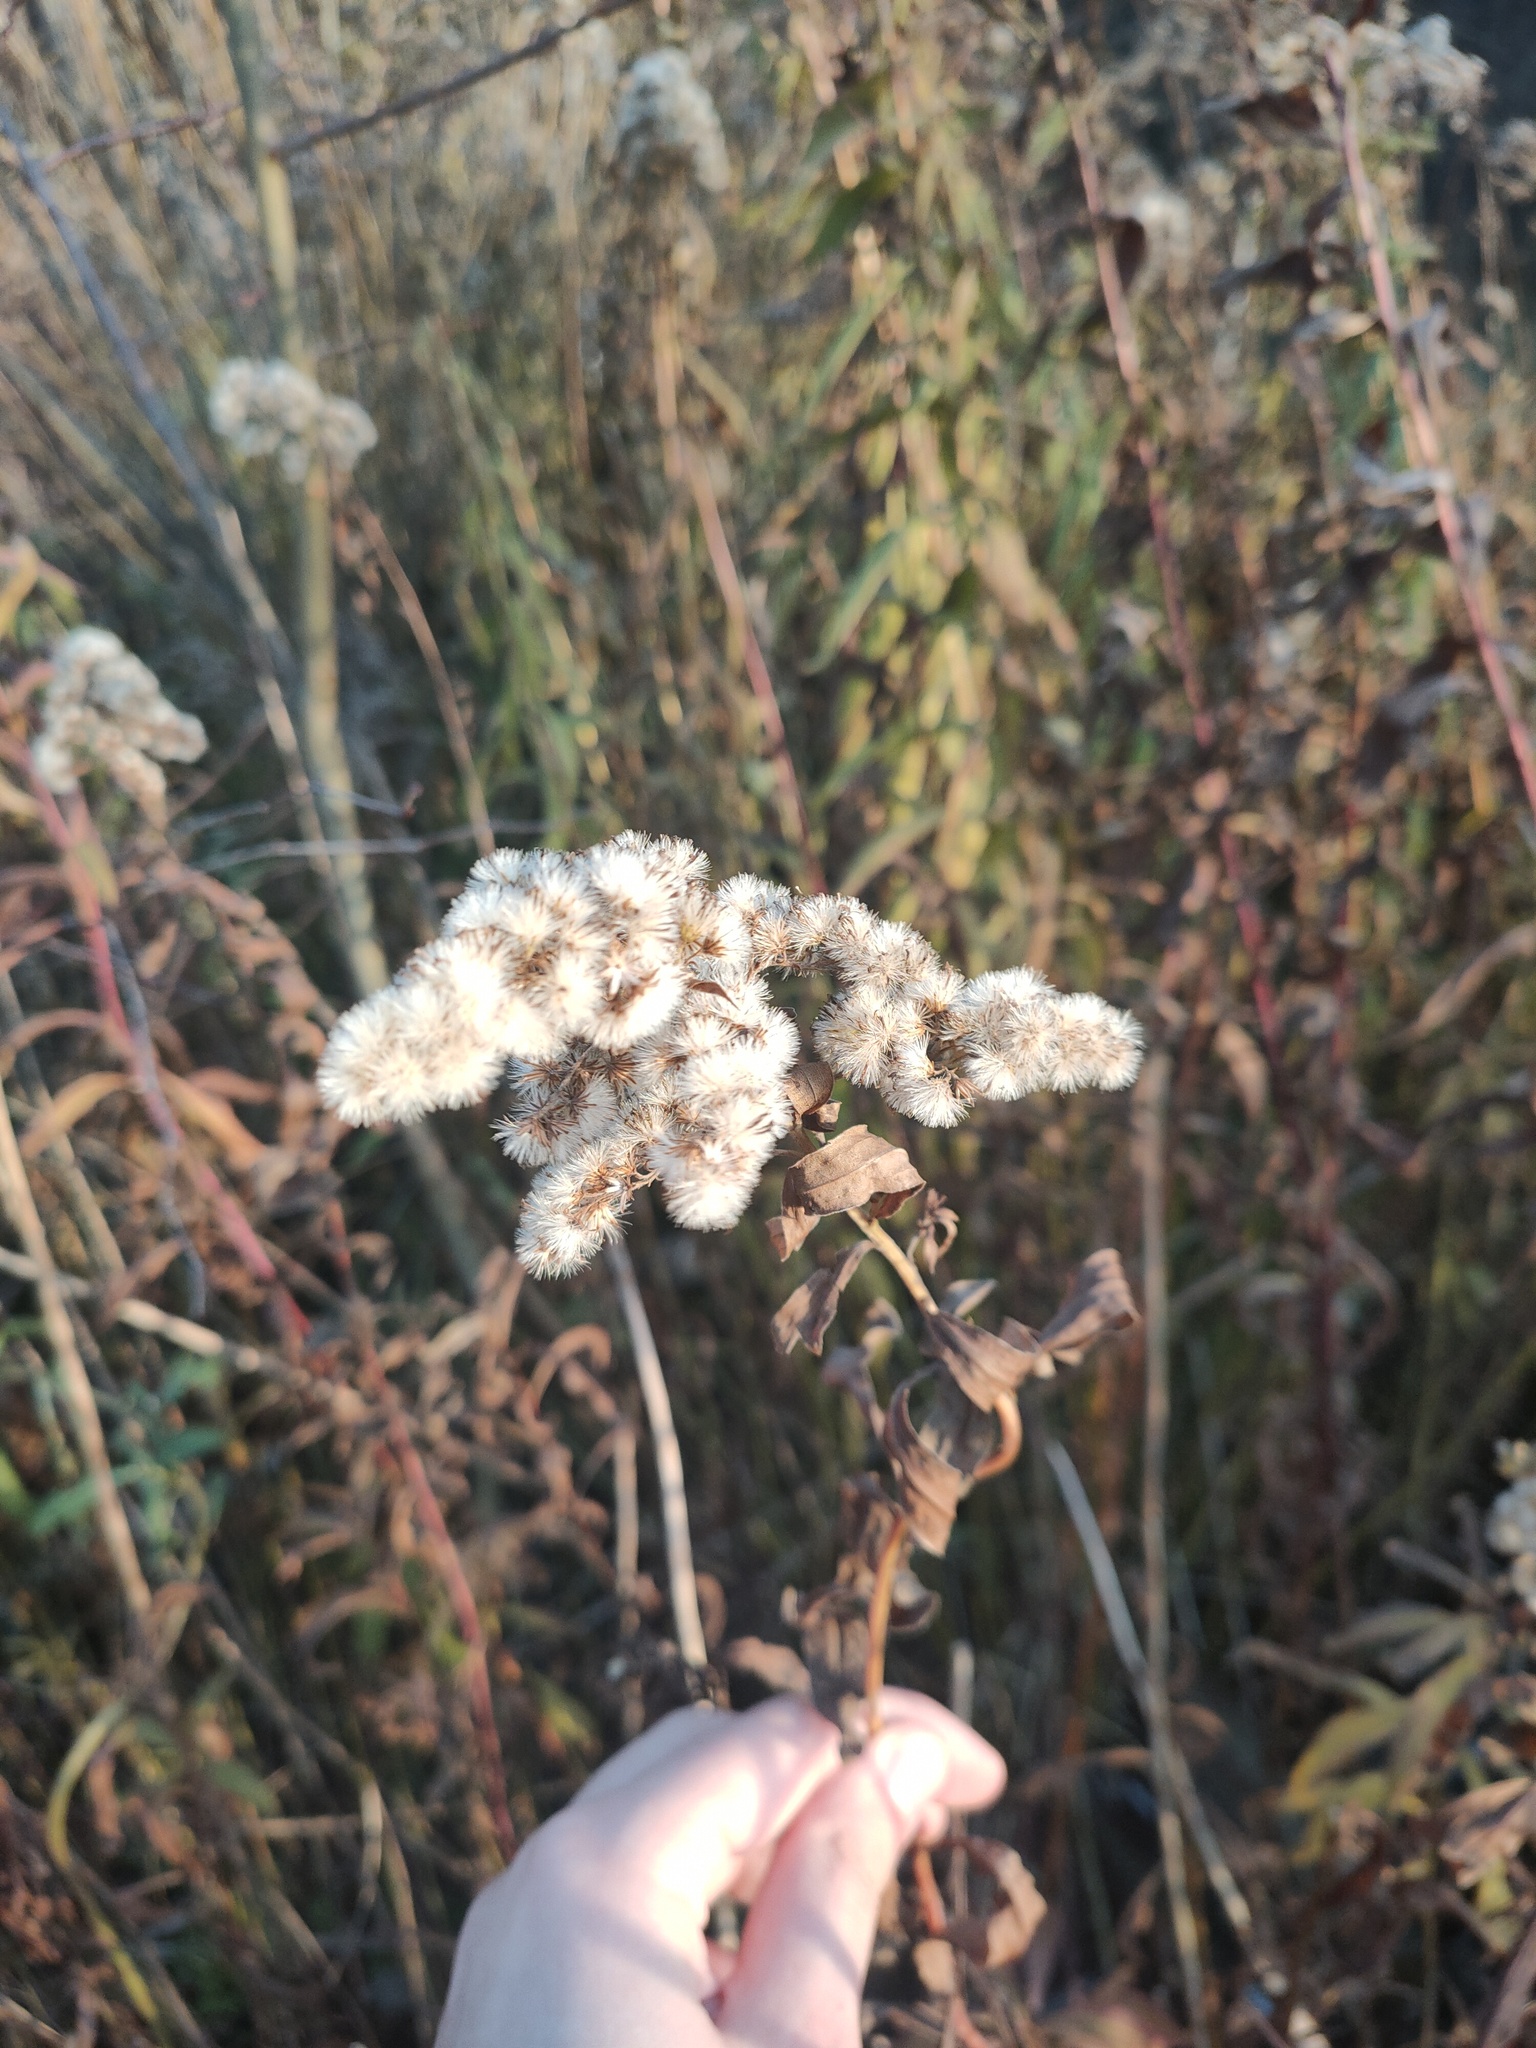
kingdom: Plantae
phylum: Tracheophyta
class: Magnoliopsida
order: Asterales
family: Asteraceae
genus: Solidago
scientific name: Solidago canadensis
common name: Canada goldenrod
